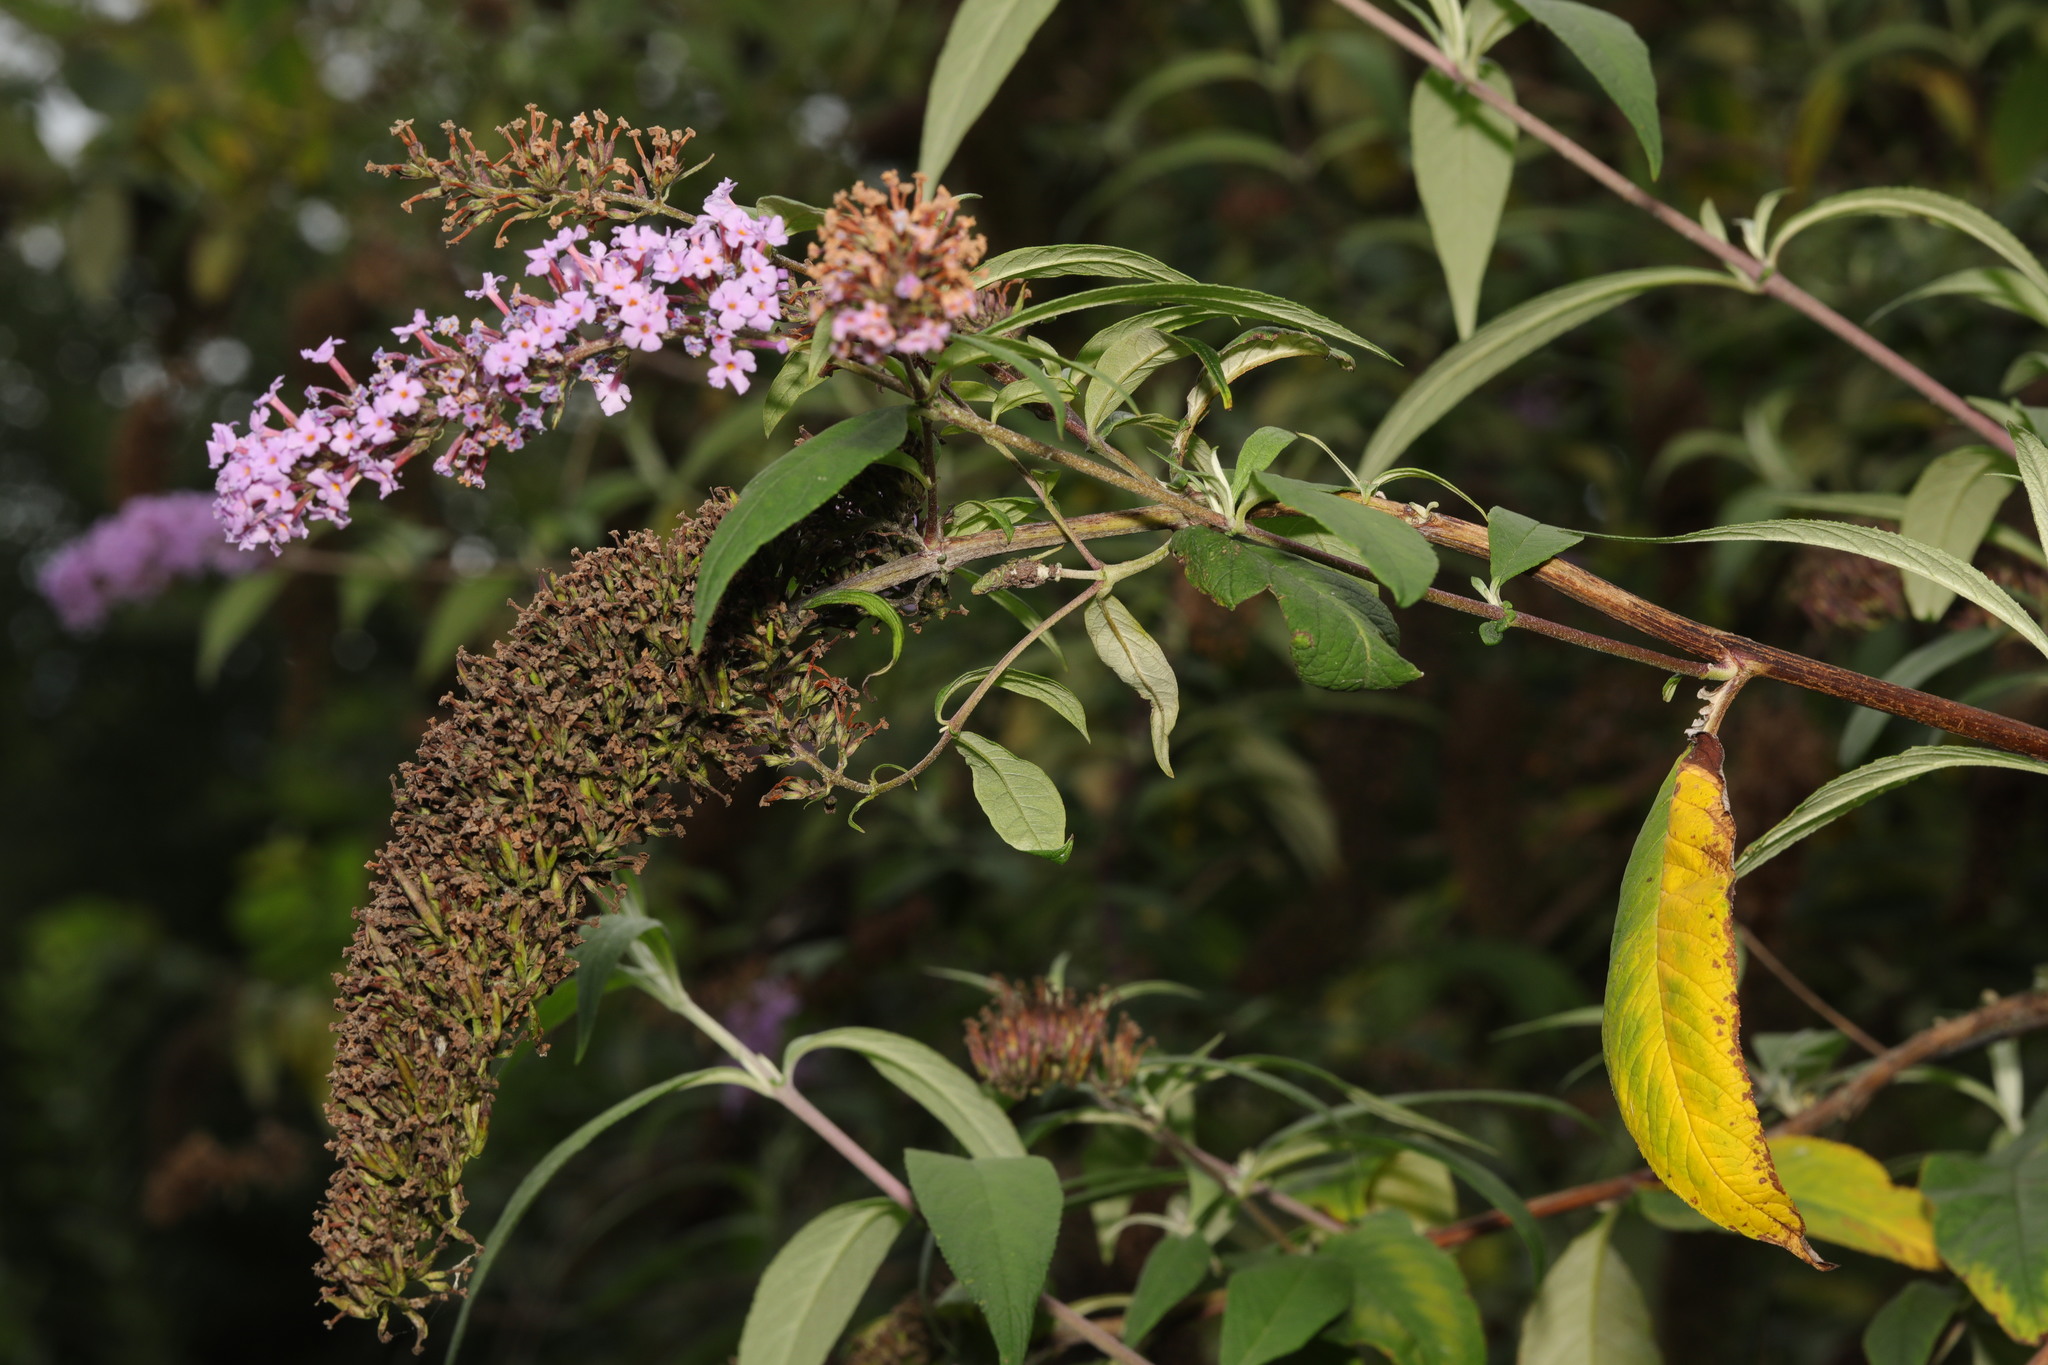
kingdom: Plantae
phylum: Tracheophyta
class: Magnoliopsida
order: Lamiales
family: Scrophulariaceae
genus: Buddleja
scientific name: Buddleja davidii
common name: Butterfly-bush
